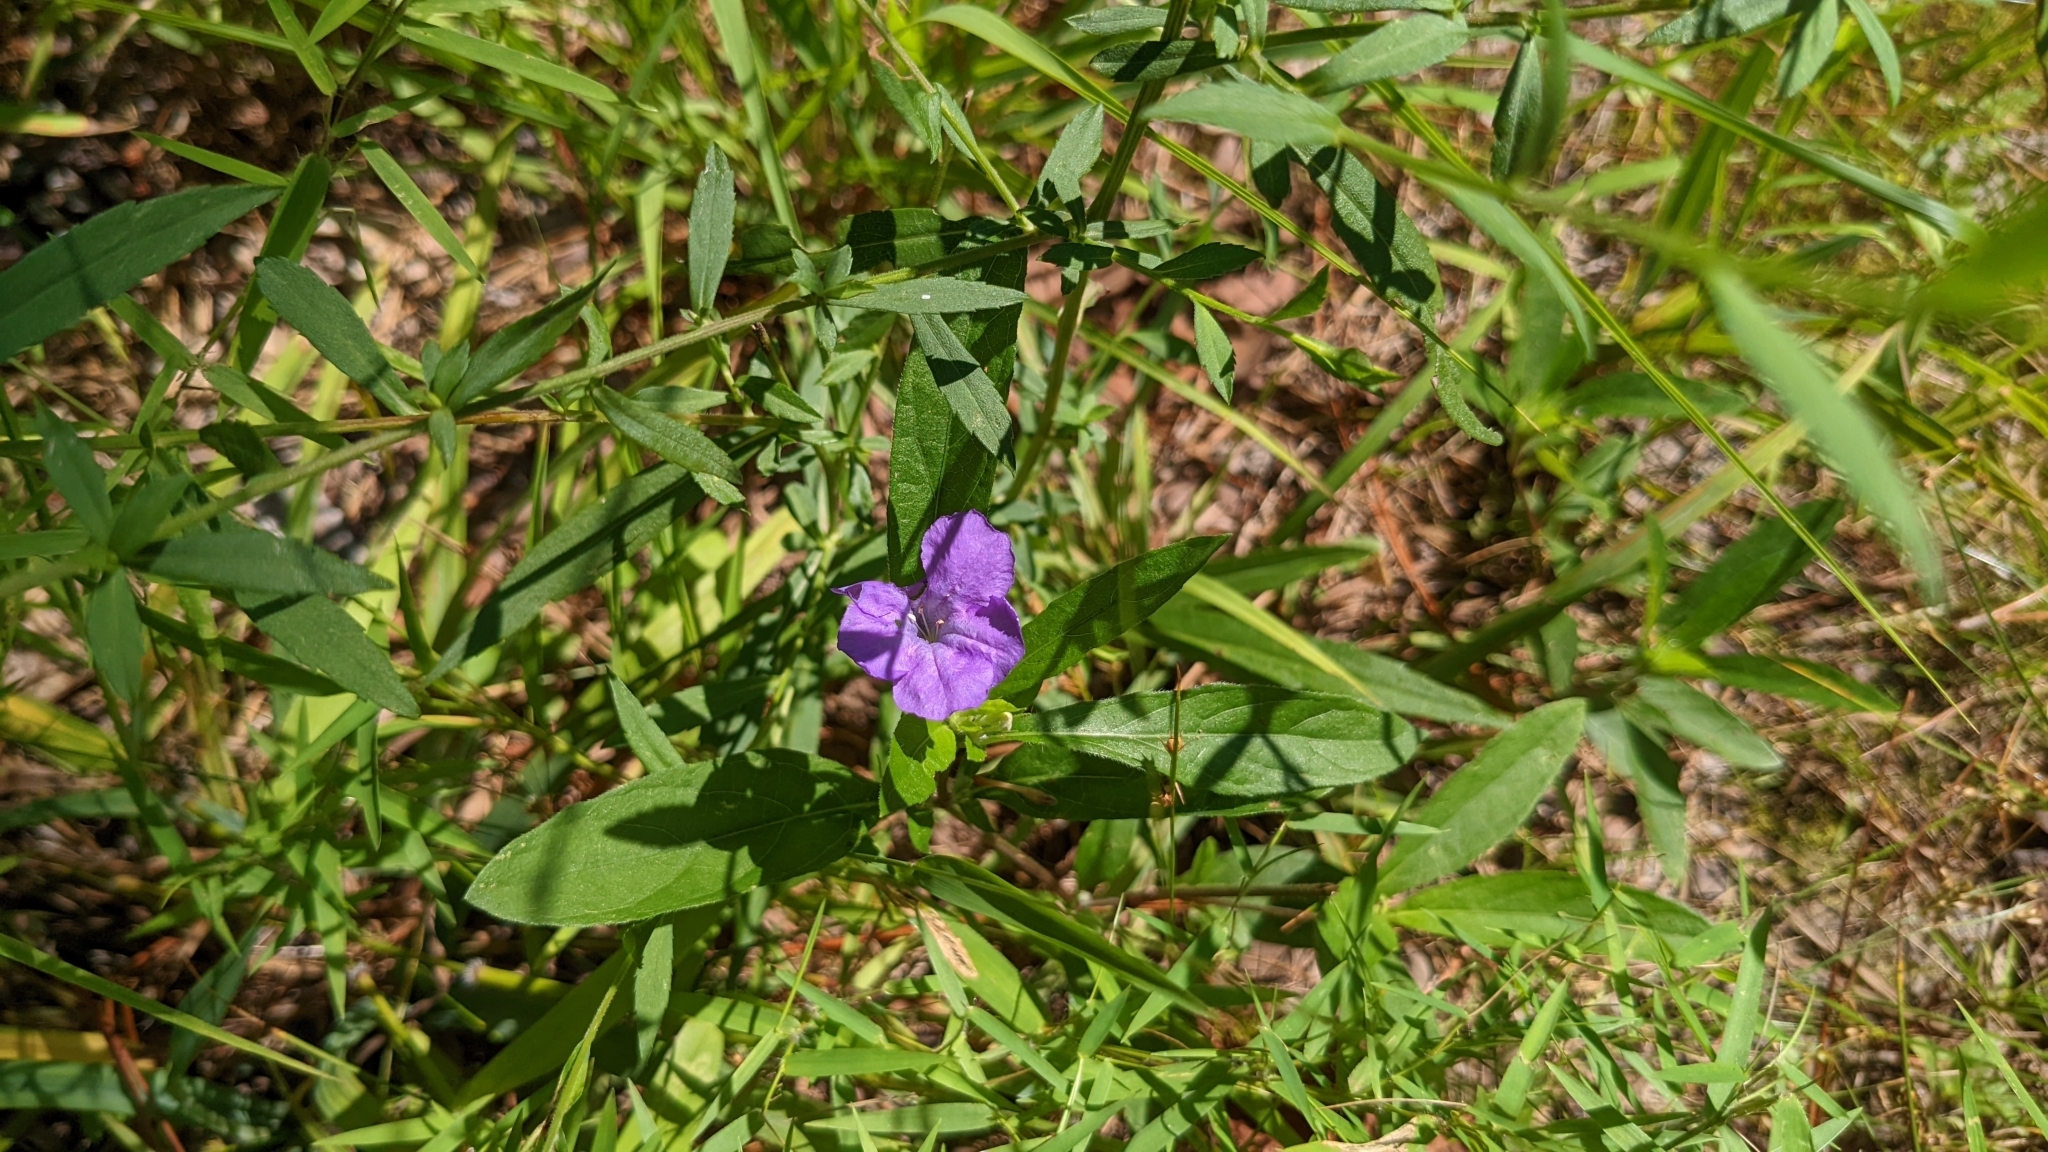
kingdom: Plantae
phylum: Tracheophyta
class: Magnoliopsida
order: Lamiales
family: Acanthaceae
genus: Ruellia
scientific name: Ruellia caroliniensis
